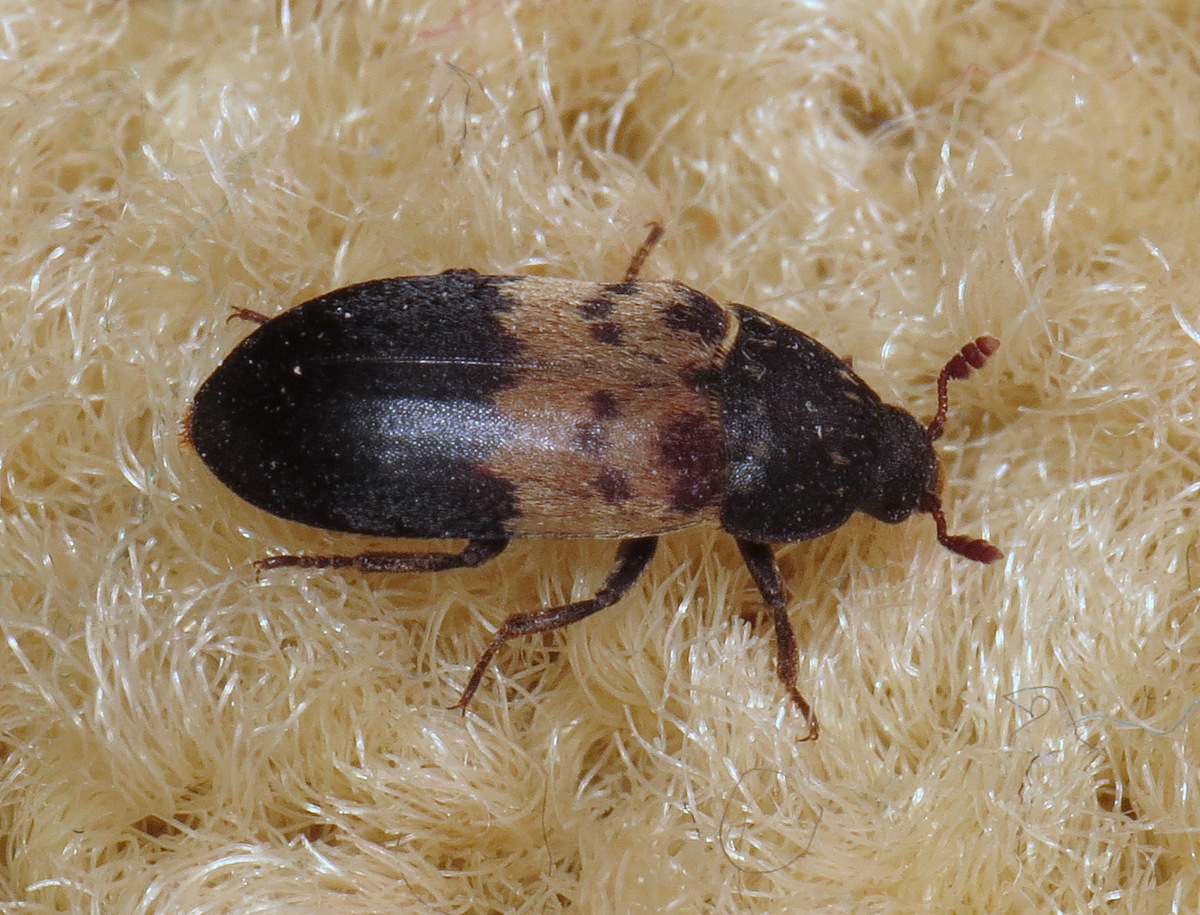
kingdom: Animalia
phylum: Arthropoda
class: Insecta
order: Coleoptera
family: Dermestidae
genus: Dermestes
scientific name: Dermestes lardarius
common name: Larder beetle
